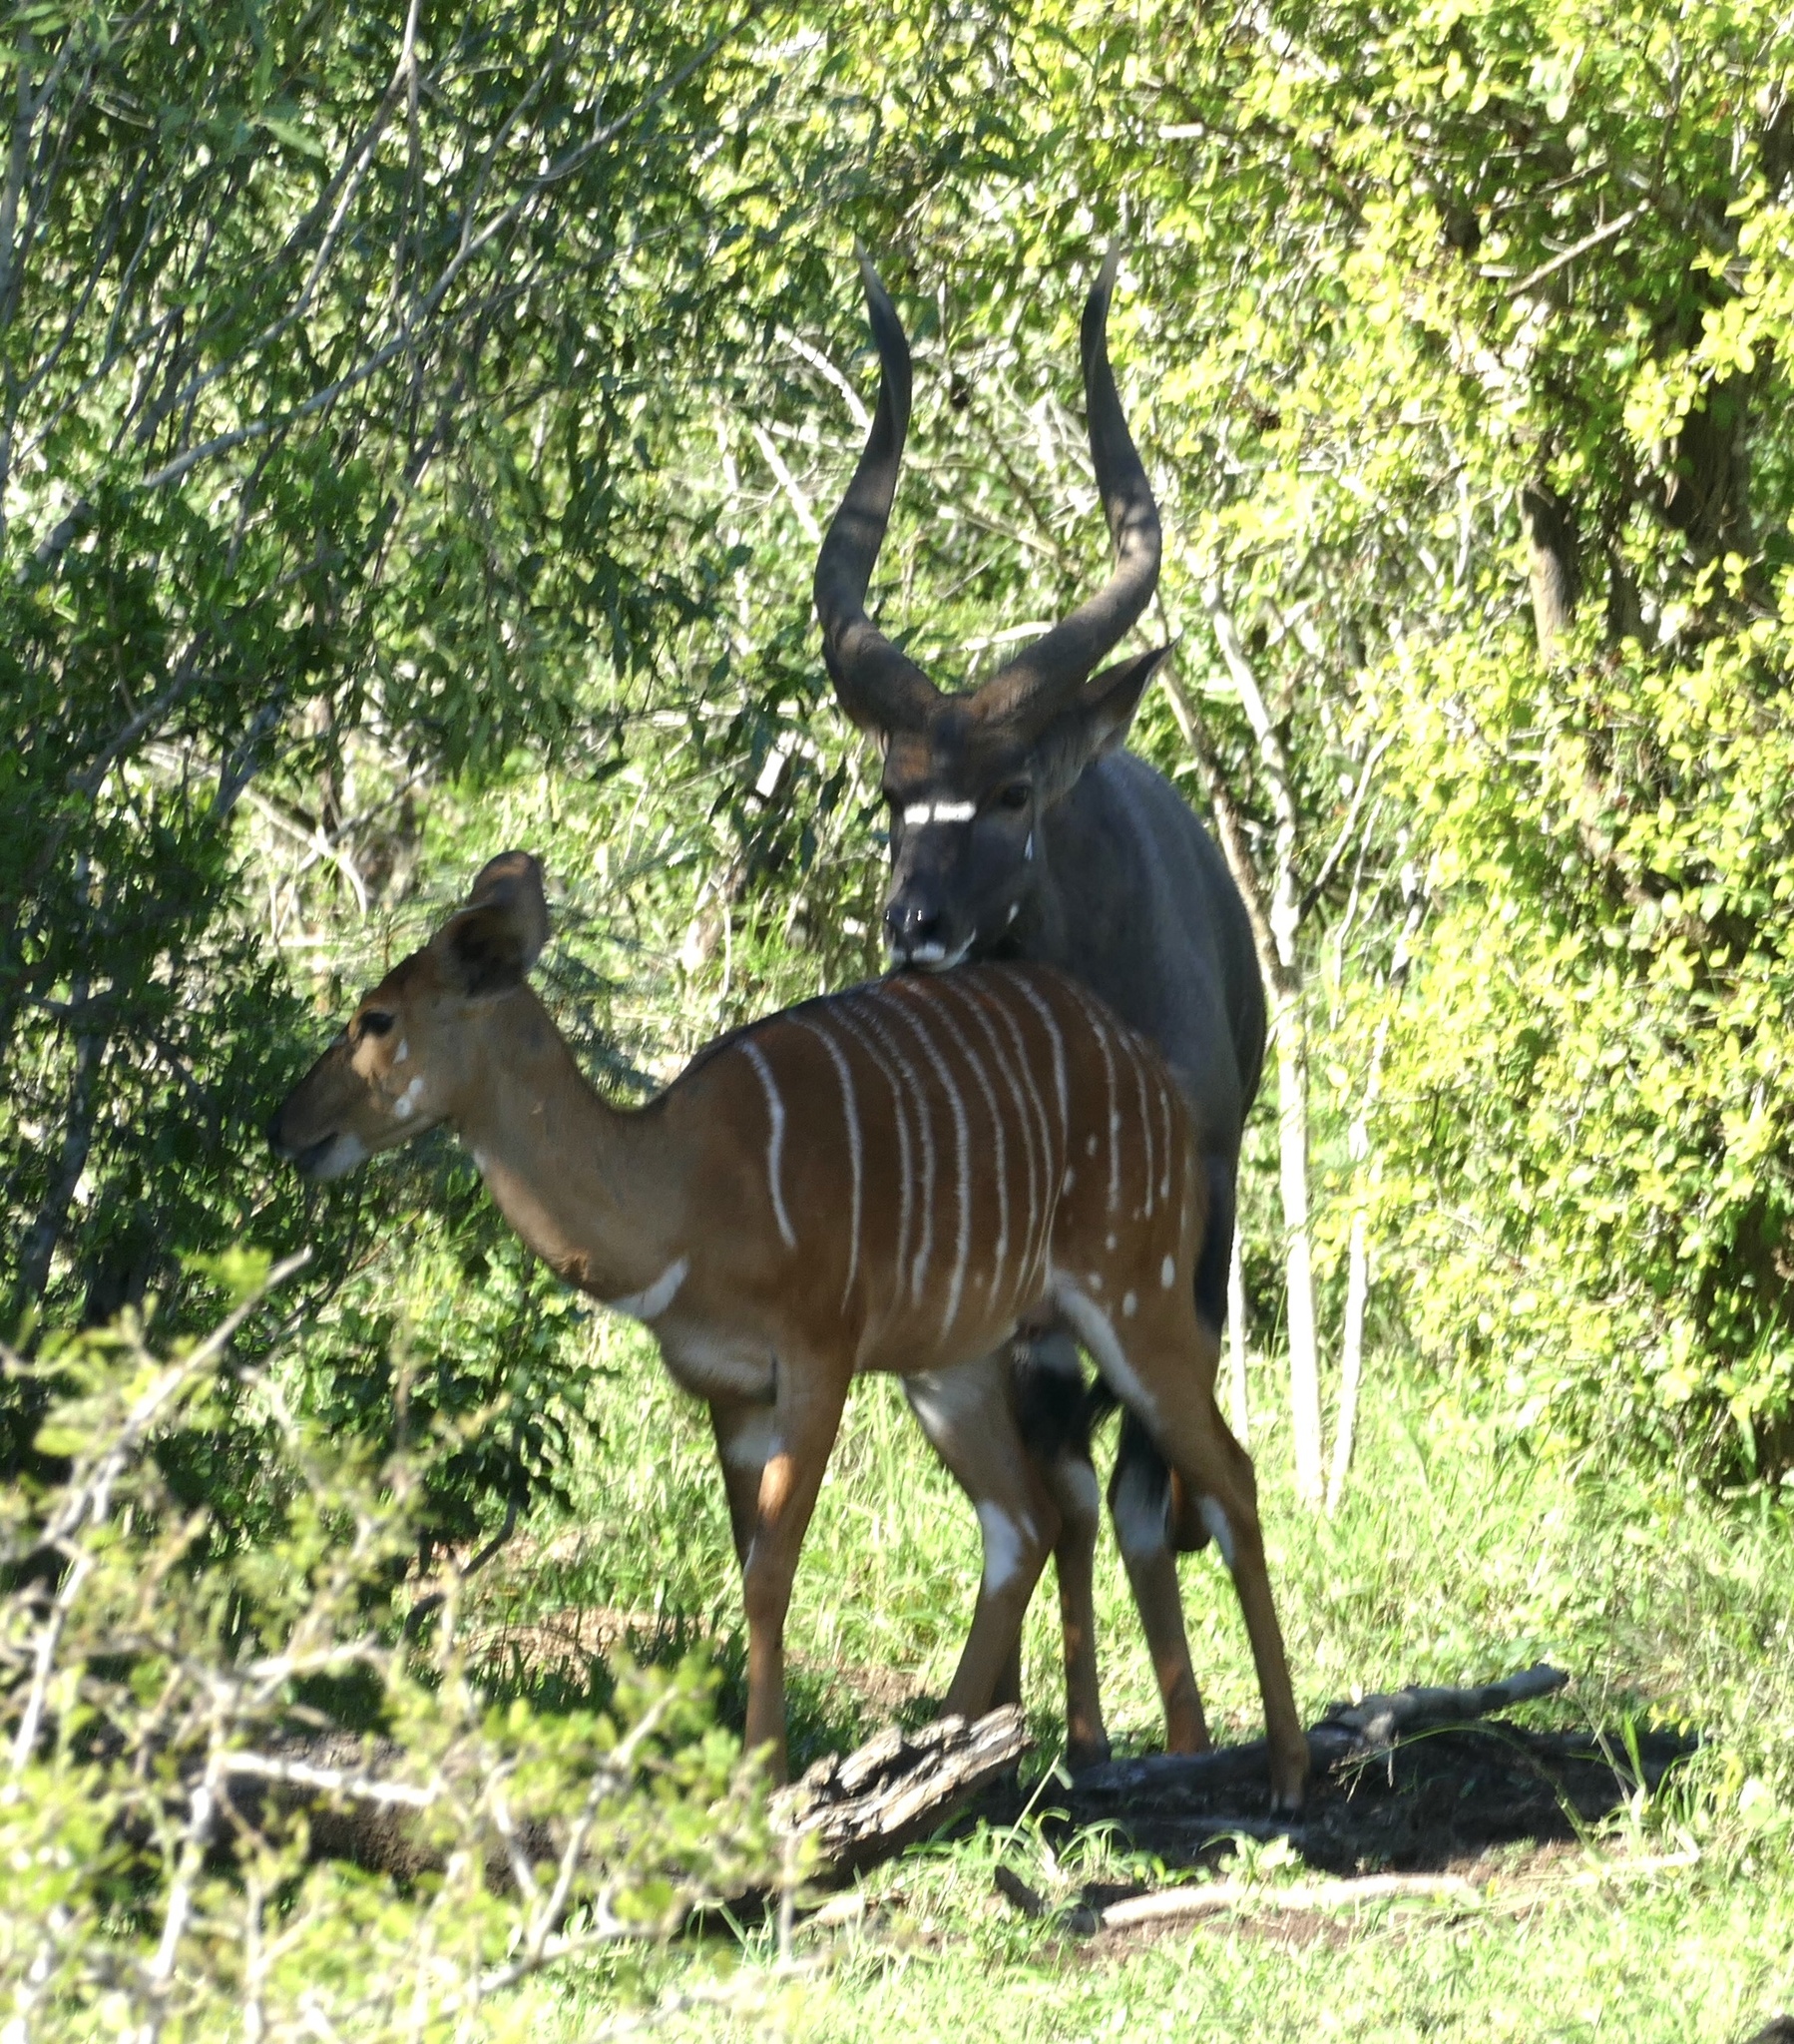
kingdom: Animalia
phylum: Chordata
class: Mammalia
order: Artiodactyla
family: Bovidae
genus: Tragelaphus
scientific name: Tragelaphus angasii
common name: Nyala
